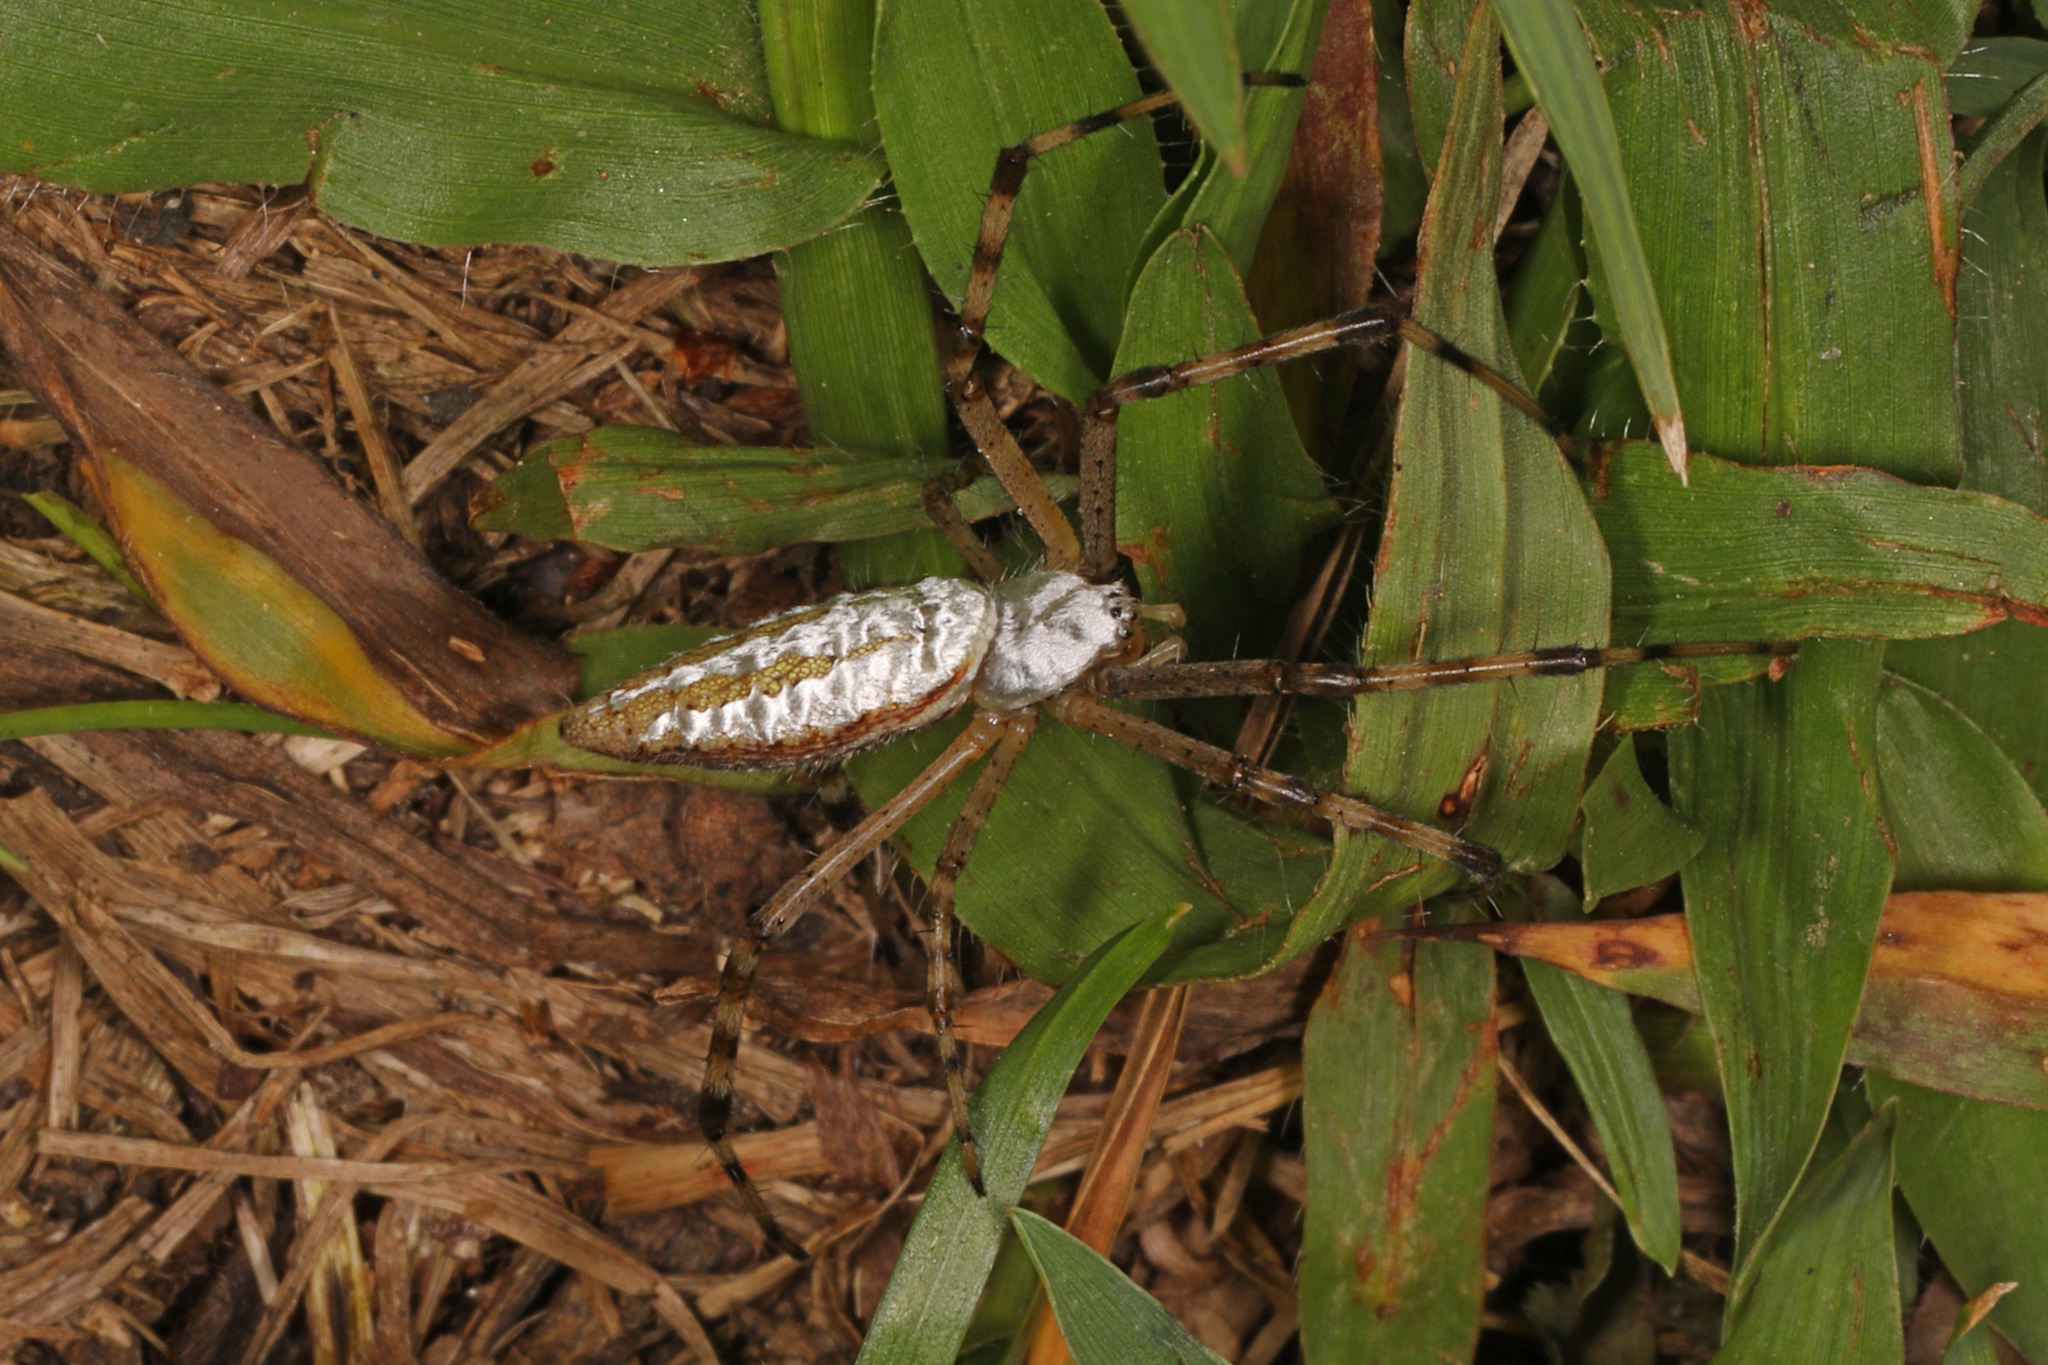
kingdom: Animalia
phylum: Arthropoda
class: Arachnida
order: Araneae
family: Araneidae
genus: Argiope
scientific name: Argiope trifasciata
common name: Banded garden spider
